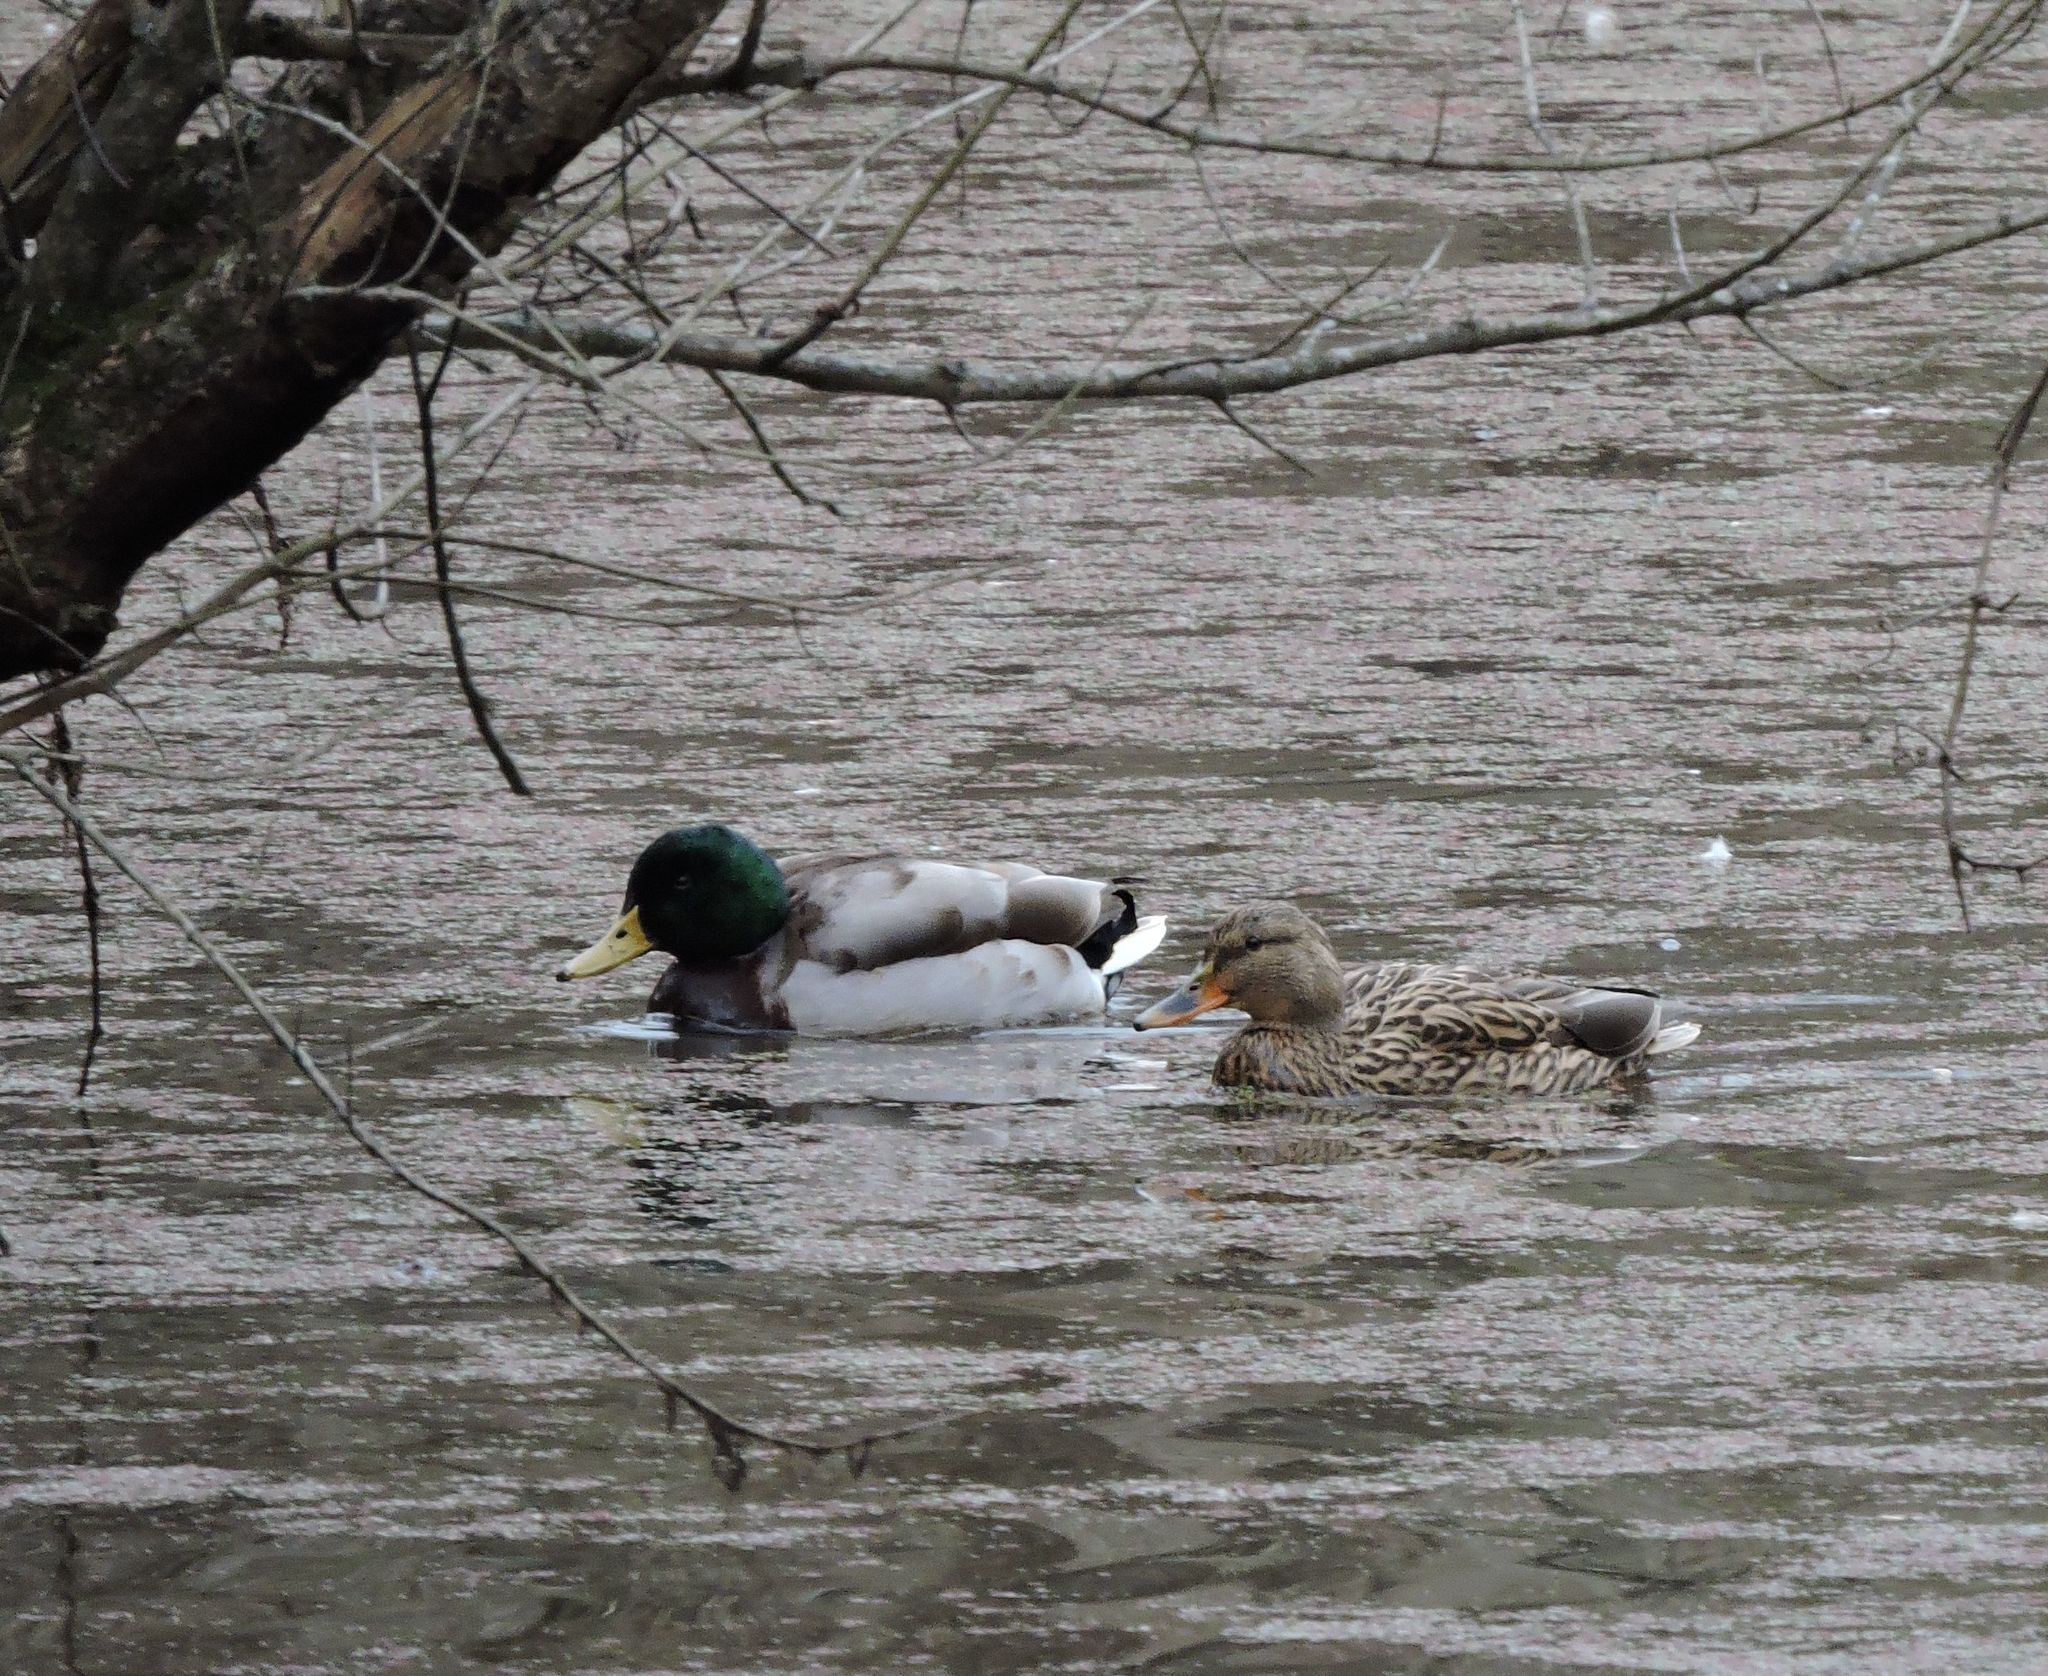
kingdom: Animalia
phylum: Chordata
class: Aves
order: Anseriformes
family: Anatidae
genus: Anas
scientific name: Anas platyrhynchos
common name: Mallard
